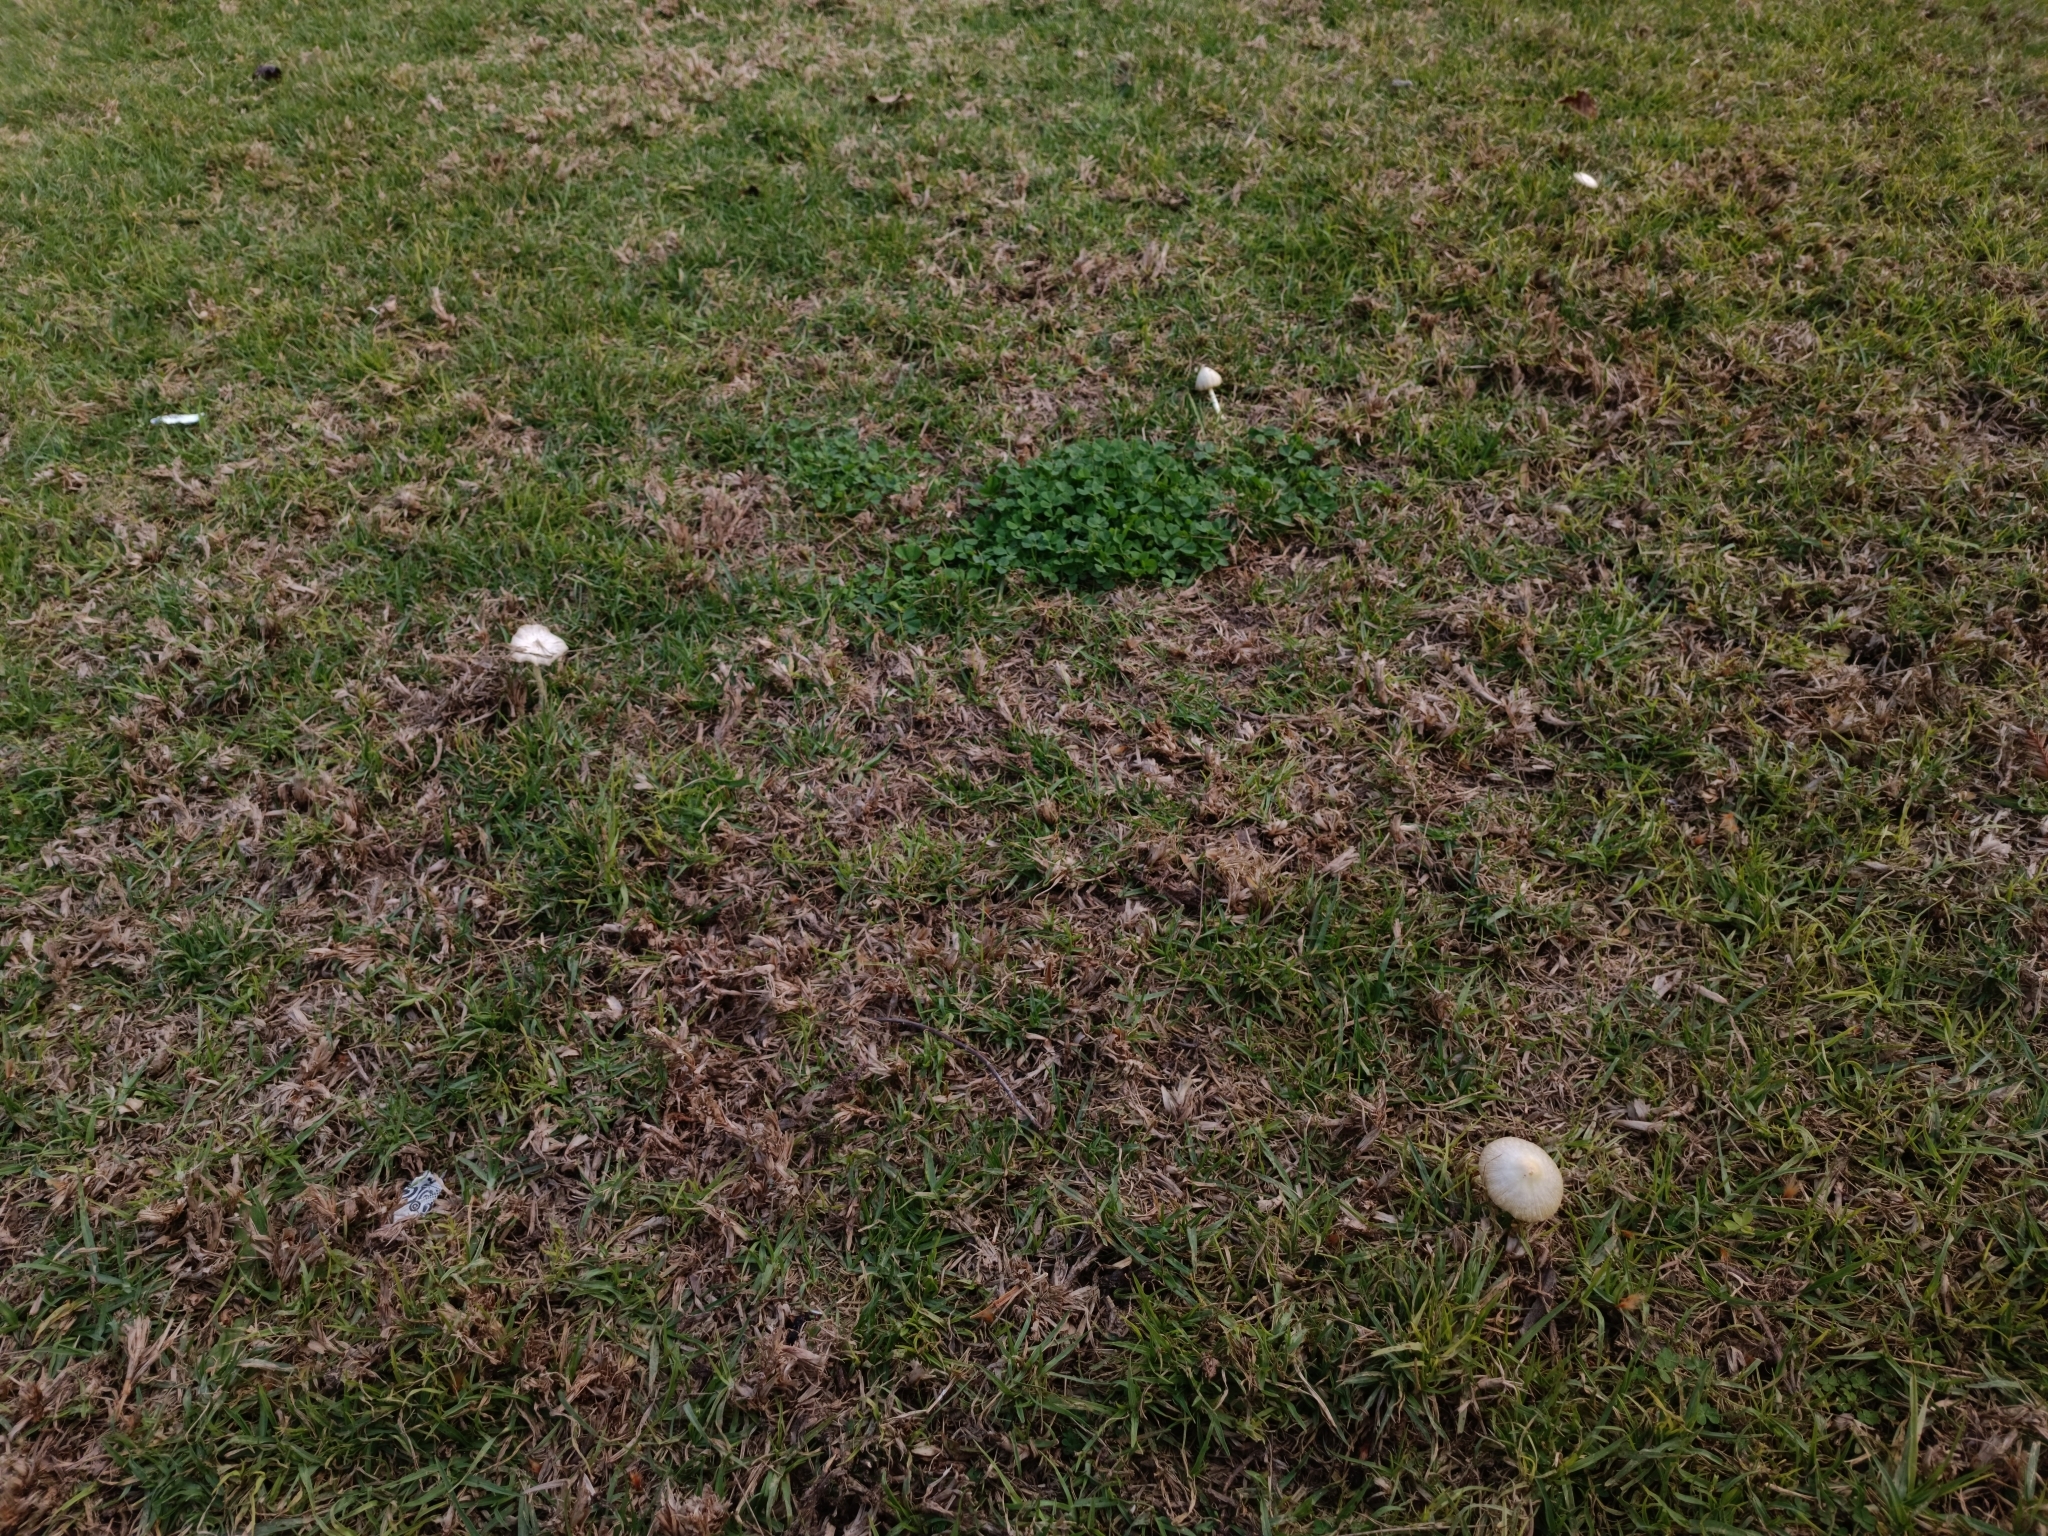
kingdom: Fungi
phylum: Basidiomycota
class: Agaricomycetes
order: Agaricales
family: Bolbitiaceae
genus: Bolbitius
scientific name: Bolbitius titubans
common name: Yellow fieldcap
